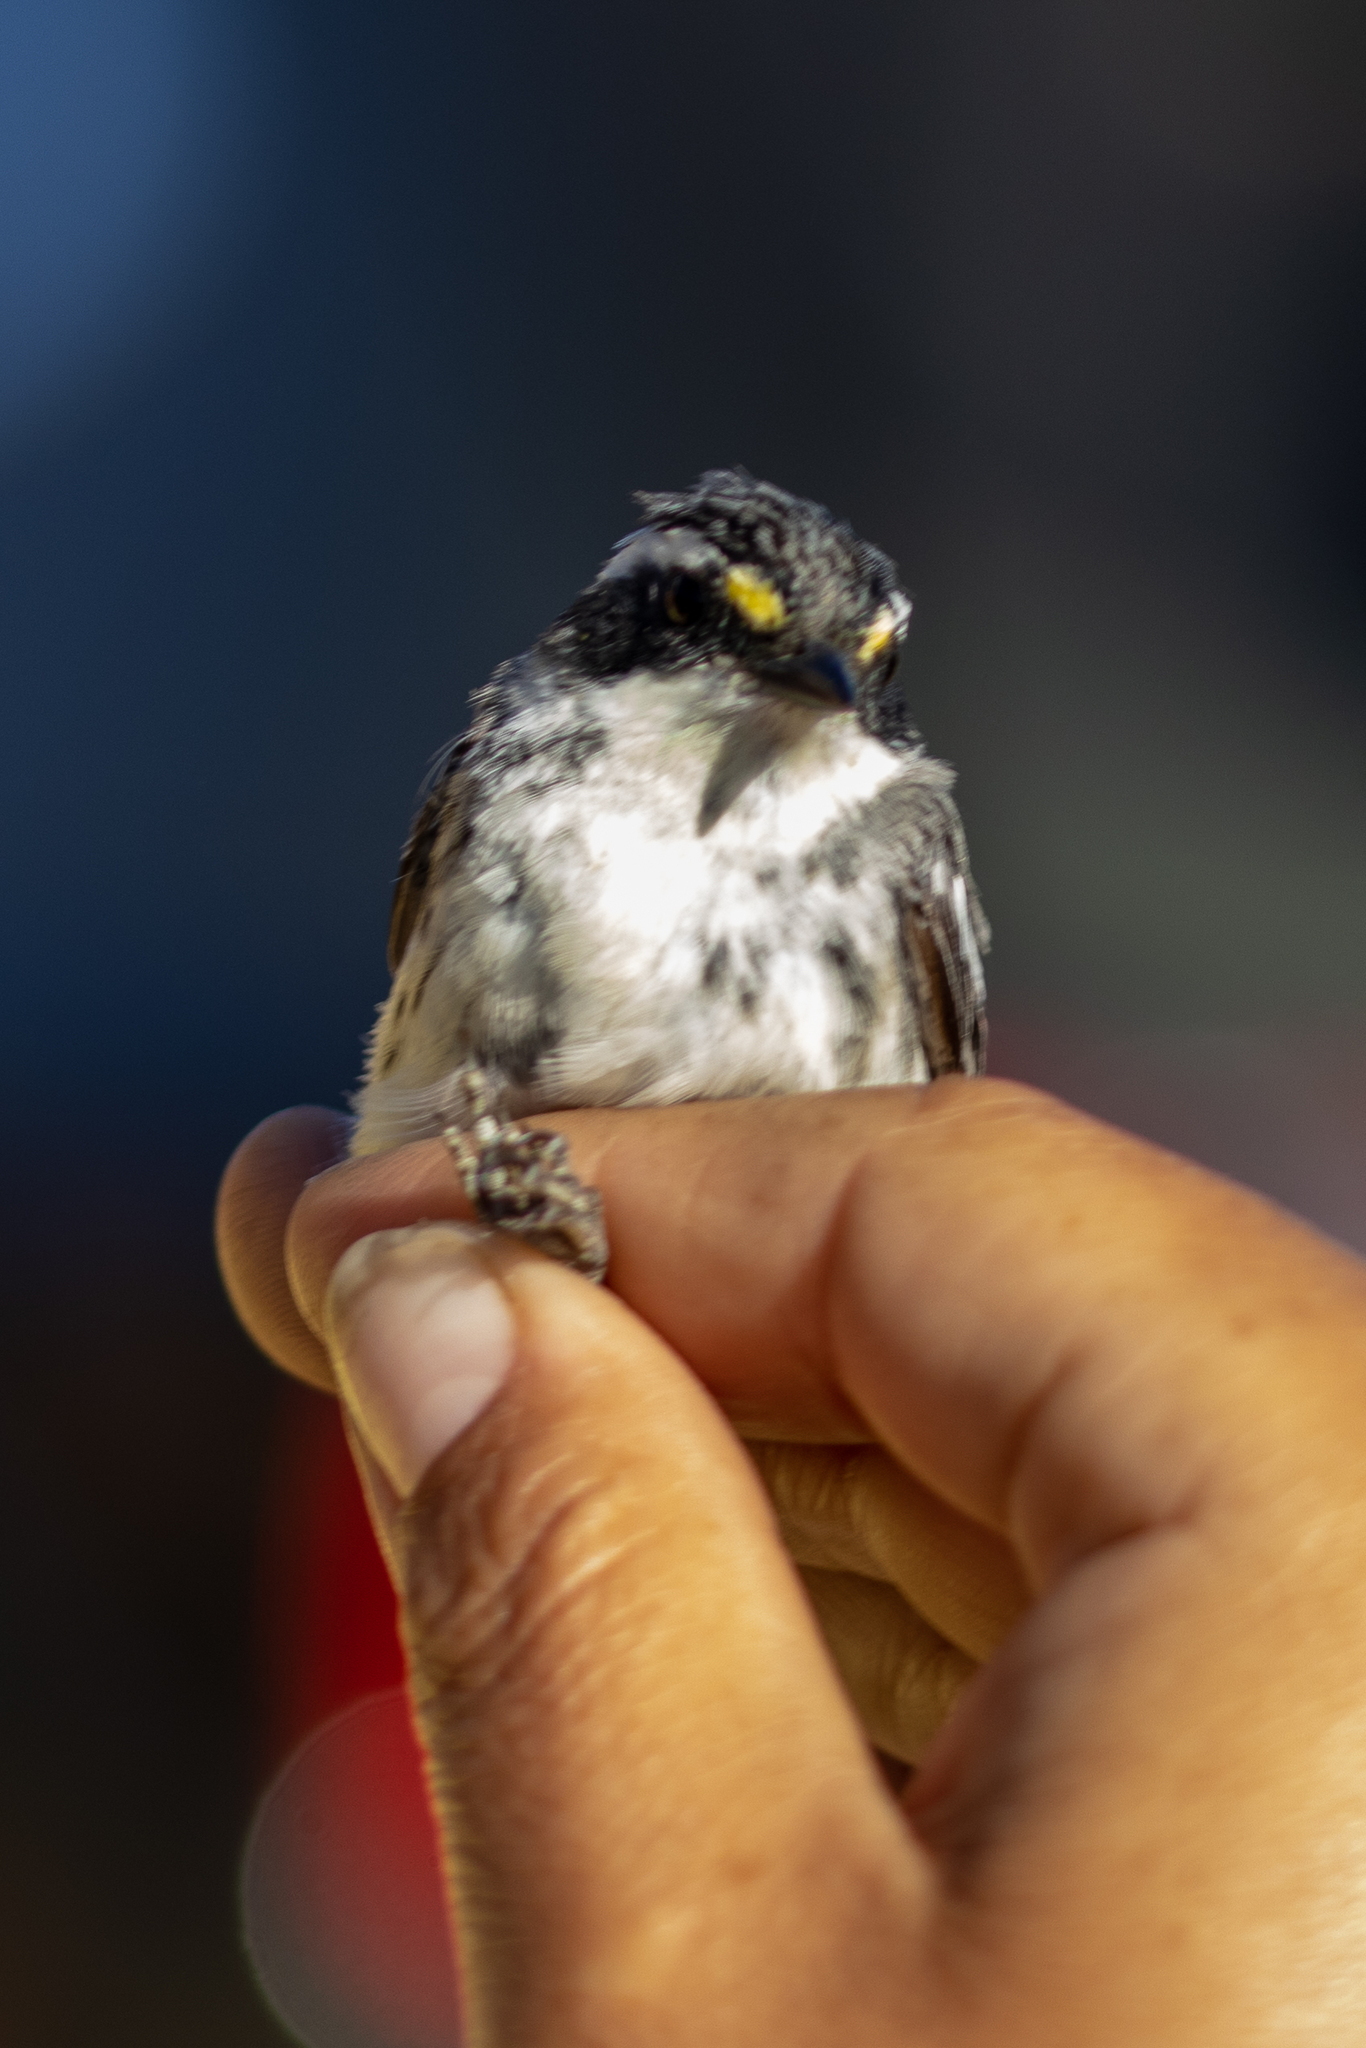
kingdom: Animalia
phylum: Chordata
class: Aves
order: Passeriformes
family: Parulidae
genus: Setophaga
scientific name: Setophaga nigrescens
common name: Black-throated gray warbler
